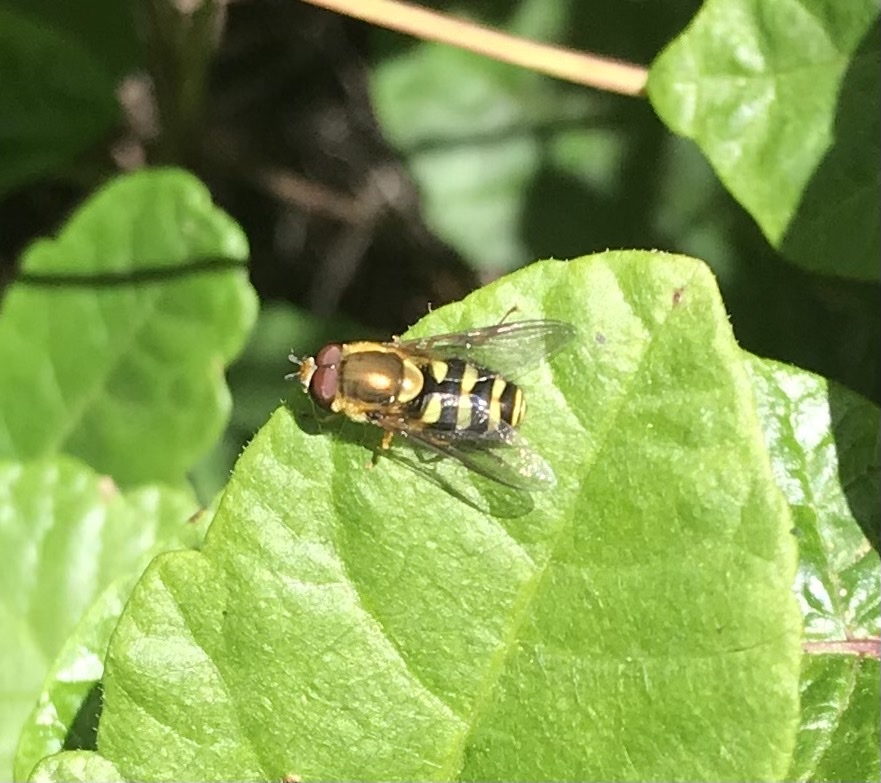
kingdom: Animalia
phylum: Arthropoda
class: Insecta
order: Diptera
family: Syrphidae
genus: Syrphus
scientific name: Syrphus opinator
